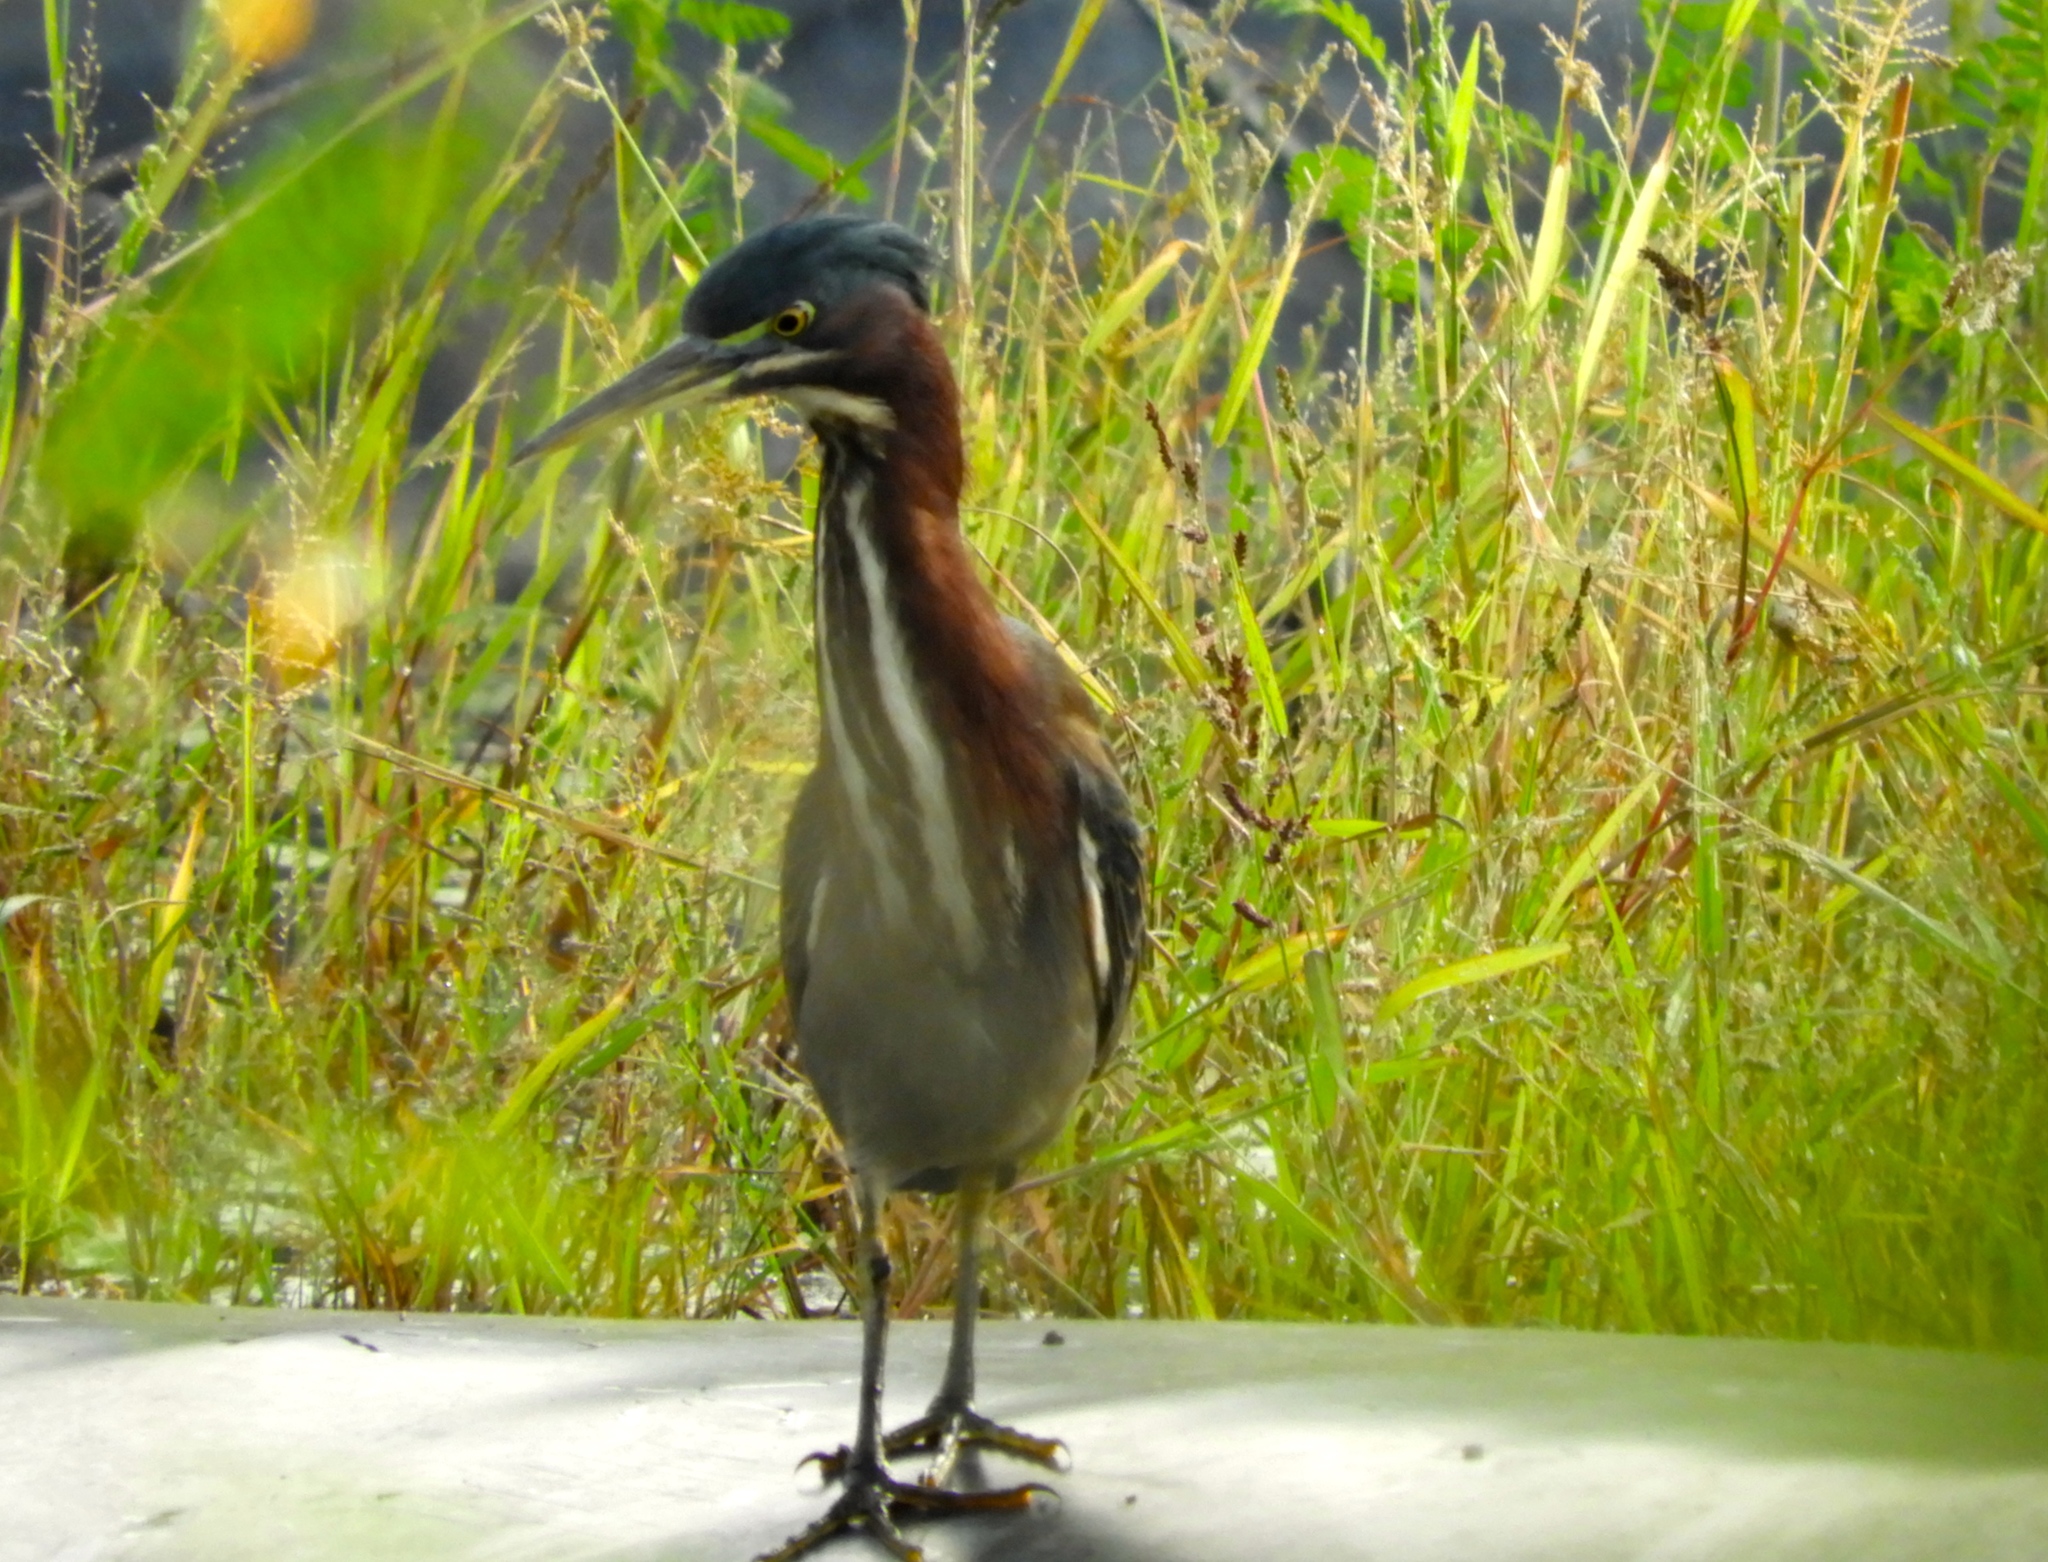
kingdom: Animalia
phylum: Chordata
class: Aves
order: Pelecaniformes
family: Ardeidae
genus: Butorides
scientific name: Butorides virescens
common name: Green heron
